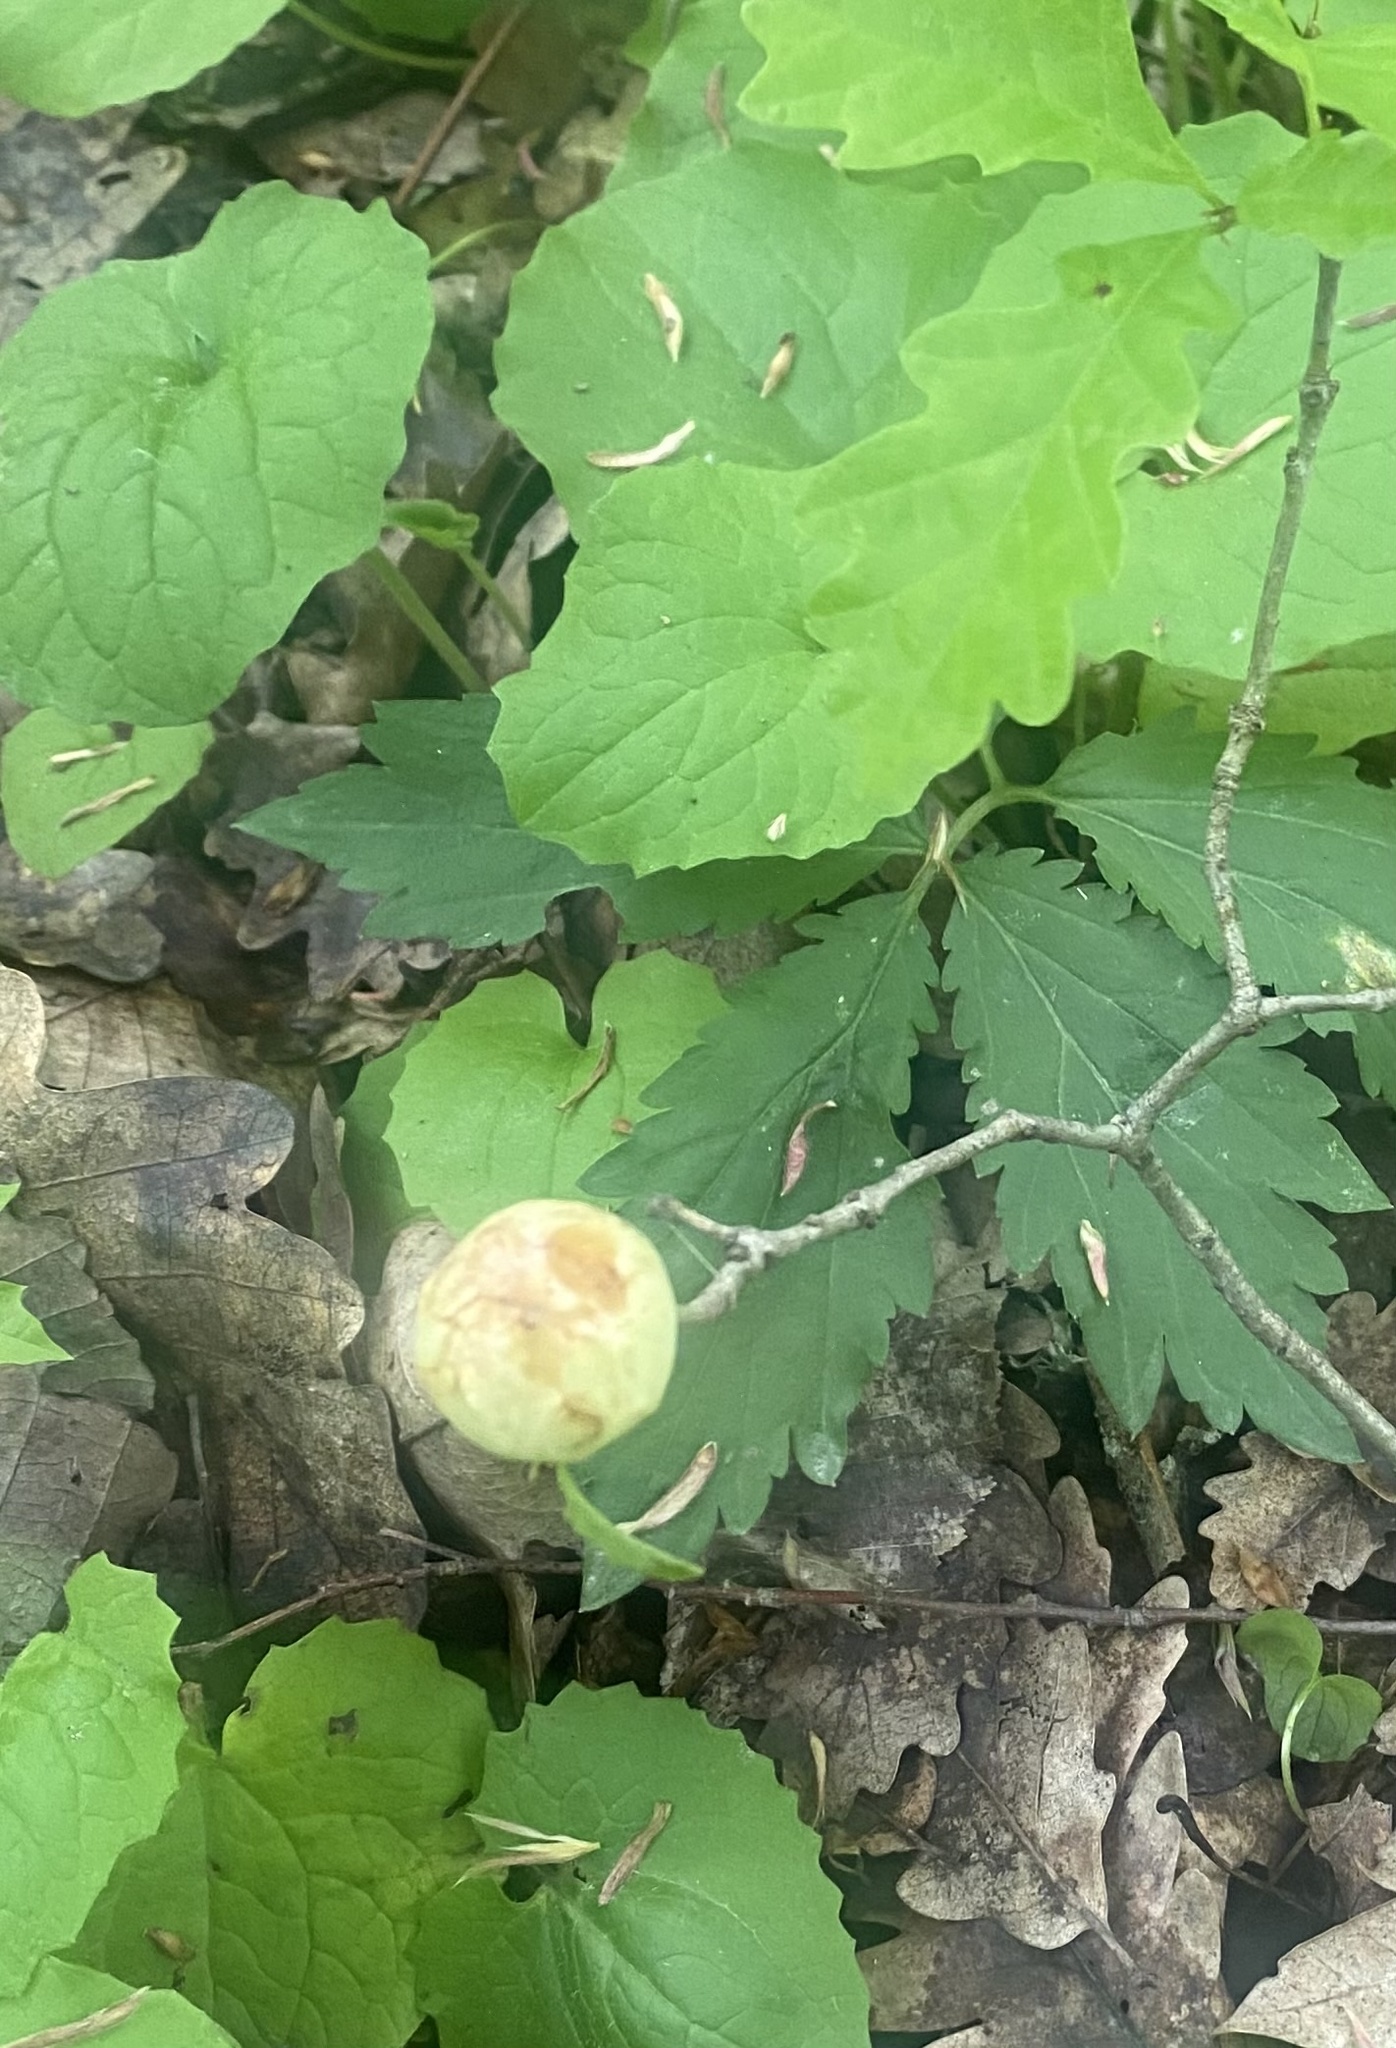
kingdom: Animalia
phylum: Arthropoda
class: Insecta
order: Hymenoptera
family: Cynipidae
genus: Biorhiza
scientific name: Biorhiza pallida
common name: Oak apple
